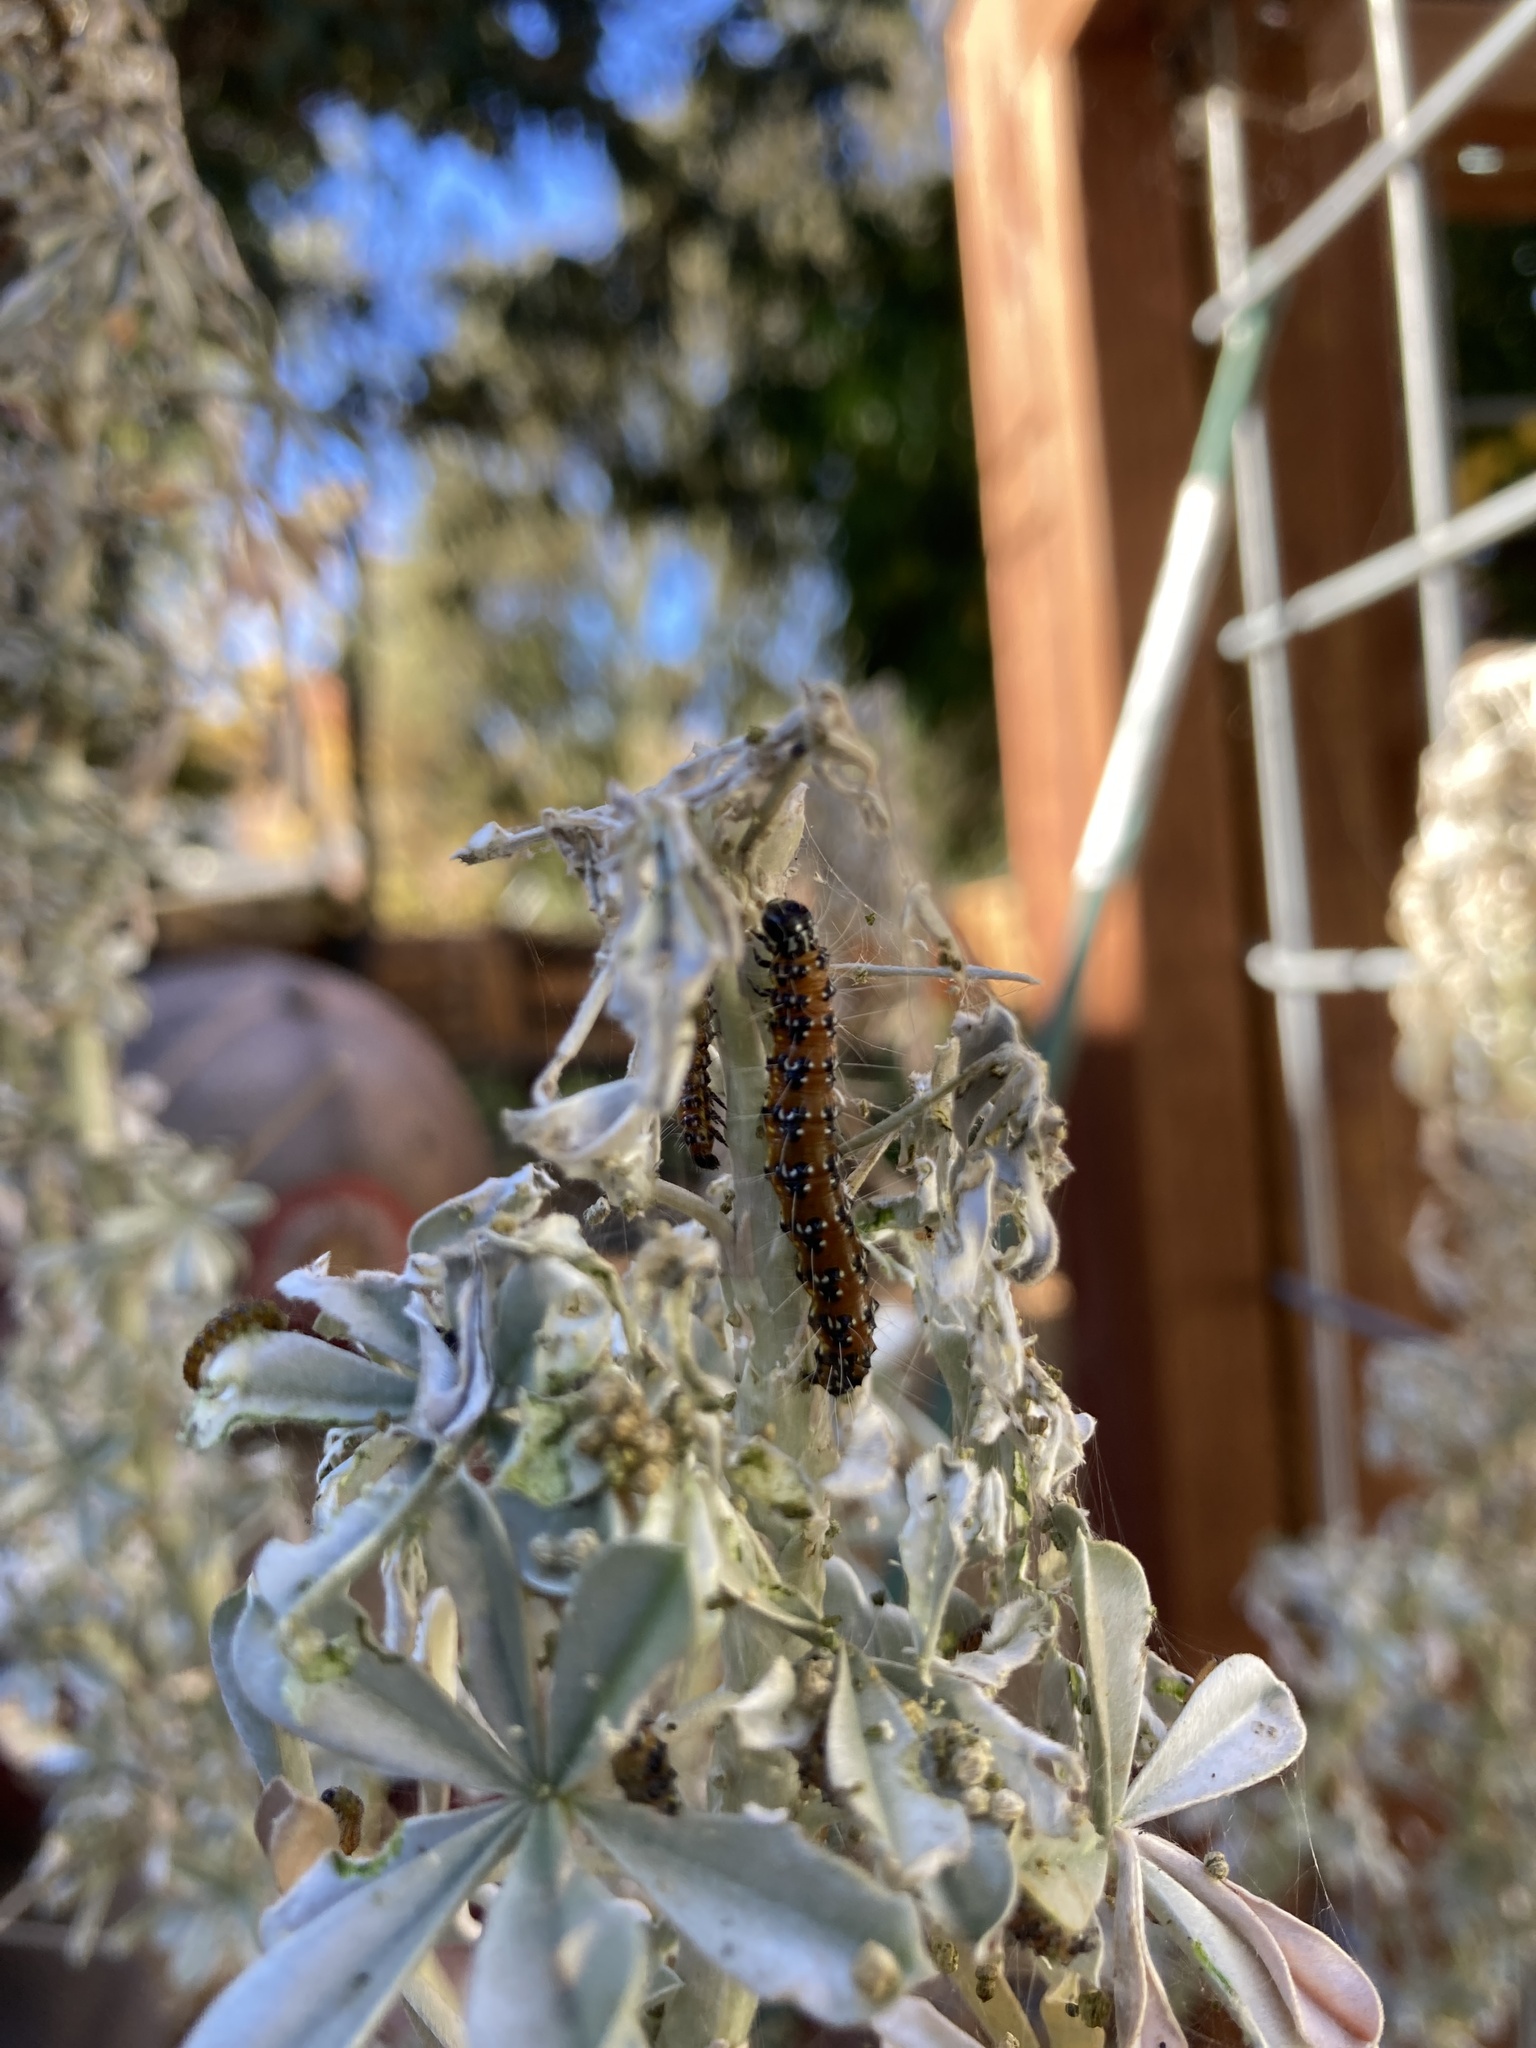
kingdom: Animalia
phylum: Arthropoda
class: Insecta
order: Lepidoptera
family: Crambidae
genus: Uresiphita
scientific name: Uresiphita reversalis
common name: Genista broom moth
